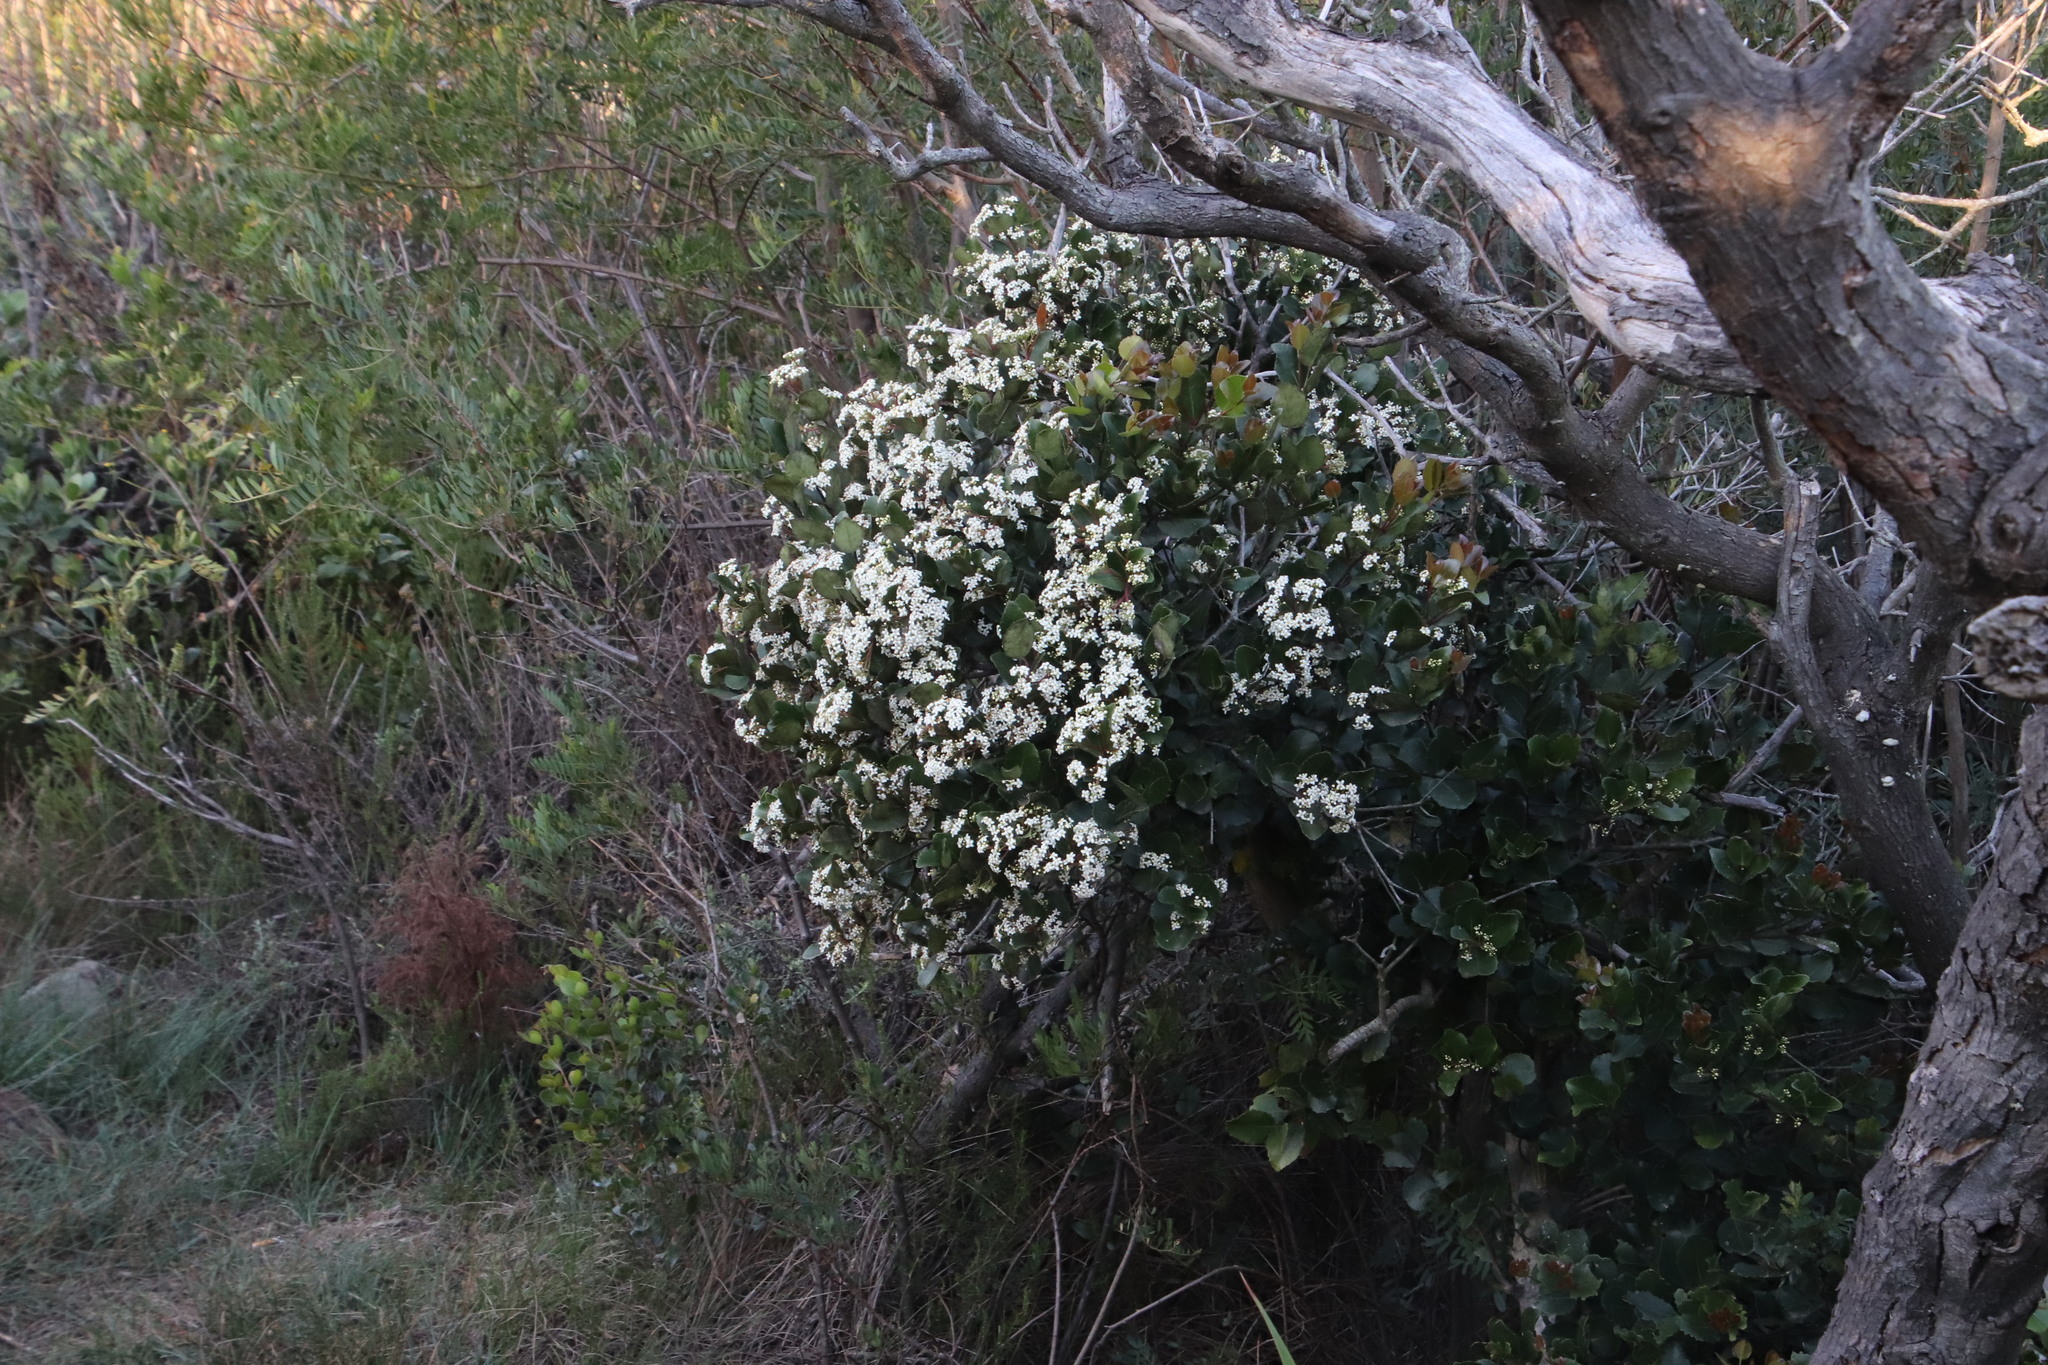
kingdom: Plantae
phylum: Tracheophyta
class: Magnoliopsida
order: Celastrales
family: Celastraceae
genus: Cassine
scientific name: Cassine peragua
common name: Cape saffron
